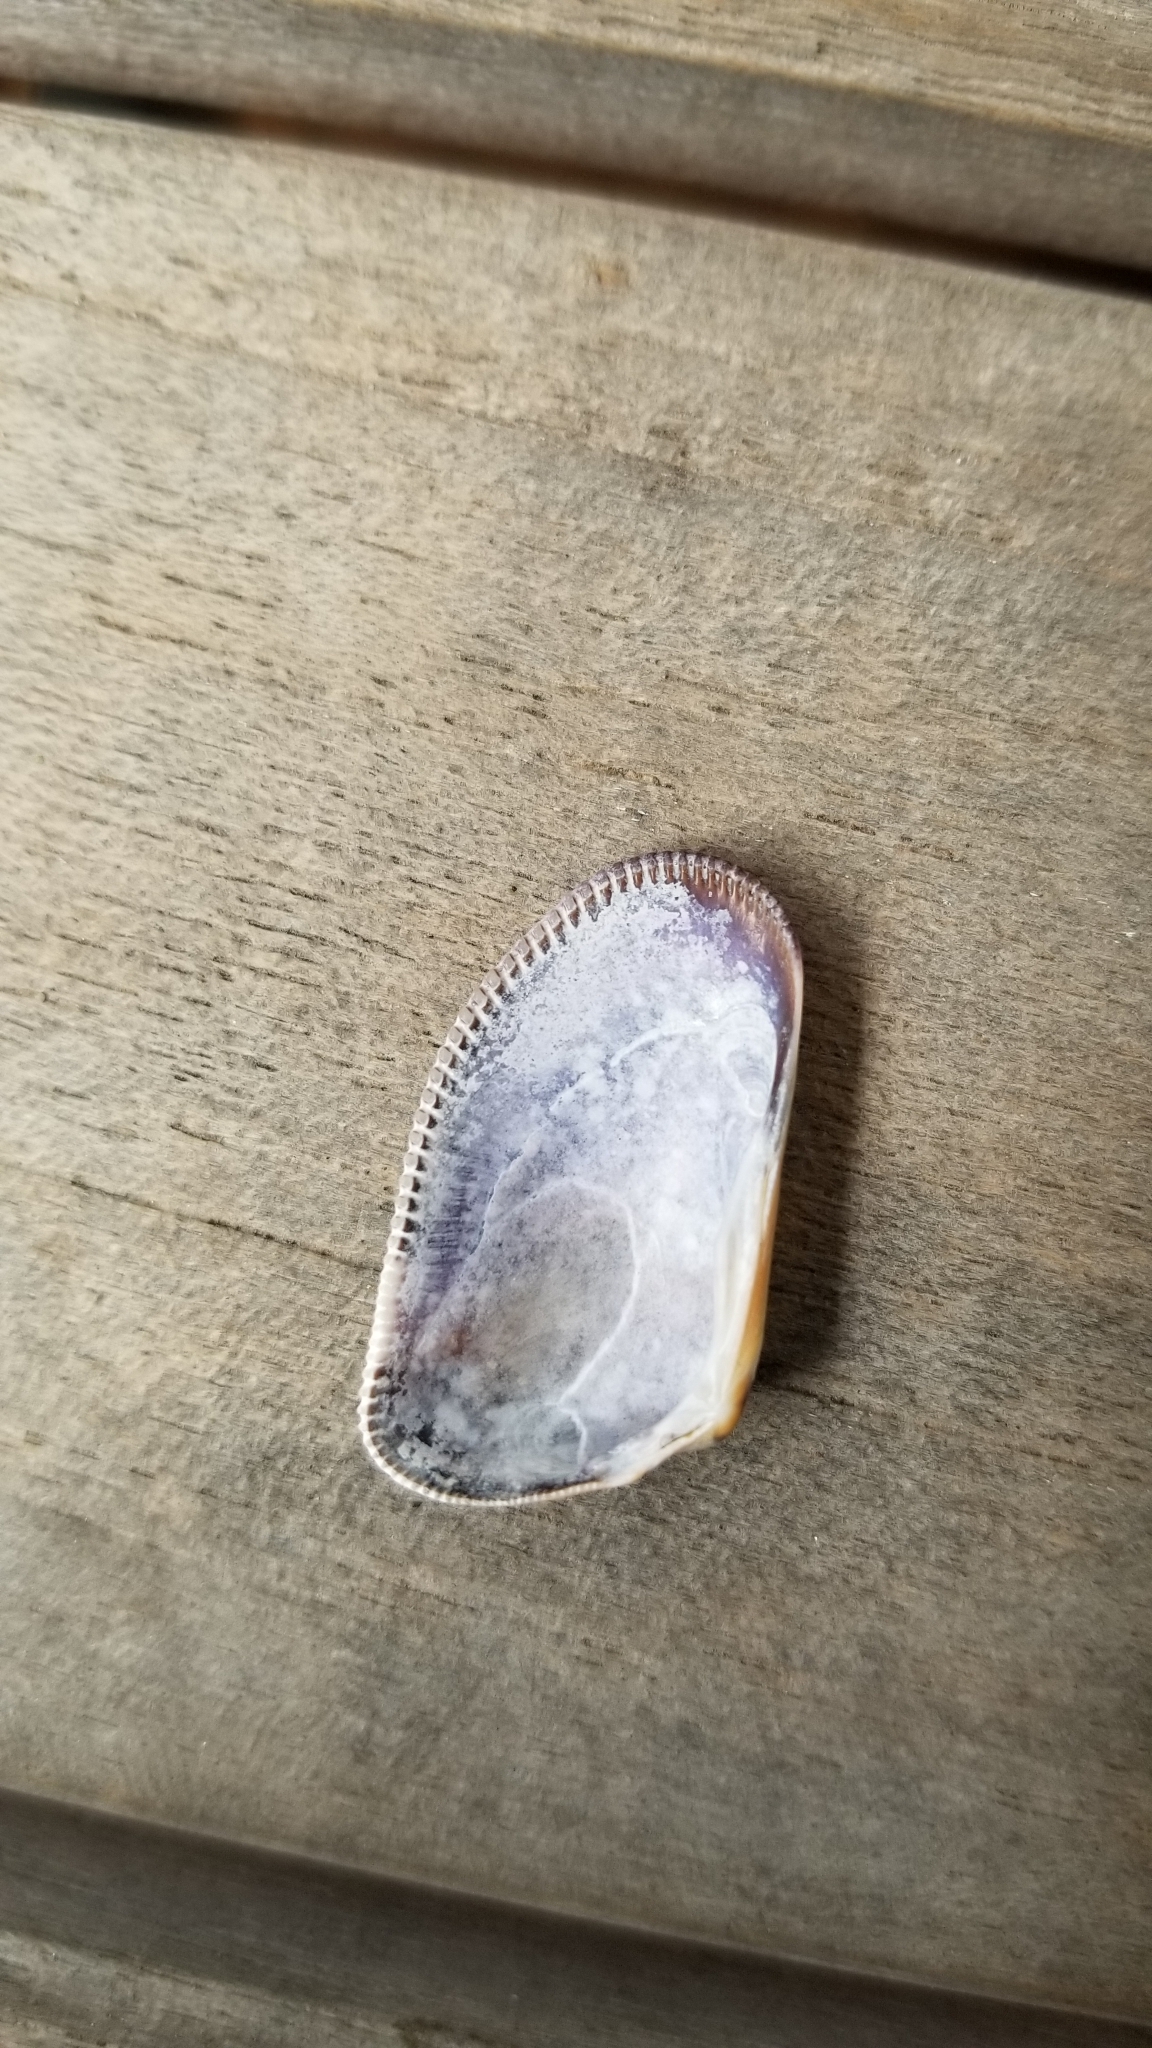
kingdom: Animalia
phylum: Mollusca
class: Bivalvia
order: Cardiida
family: Donacidae
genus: Donax
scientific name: Donax gouldii
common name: Gould beanclam
